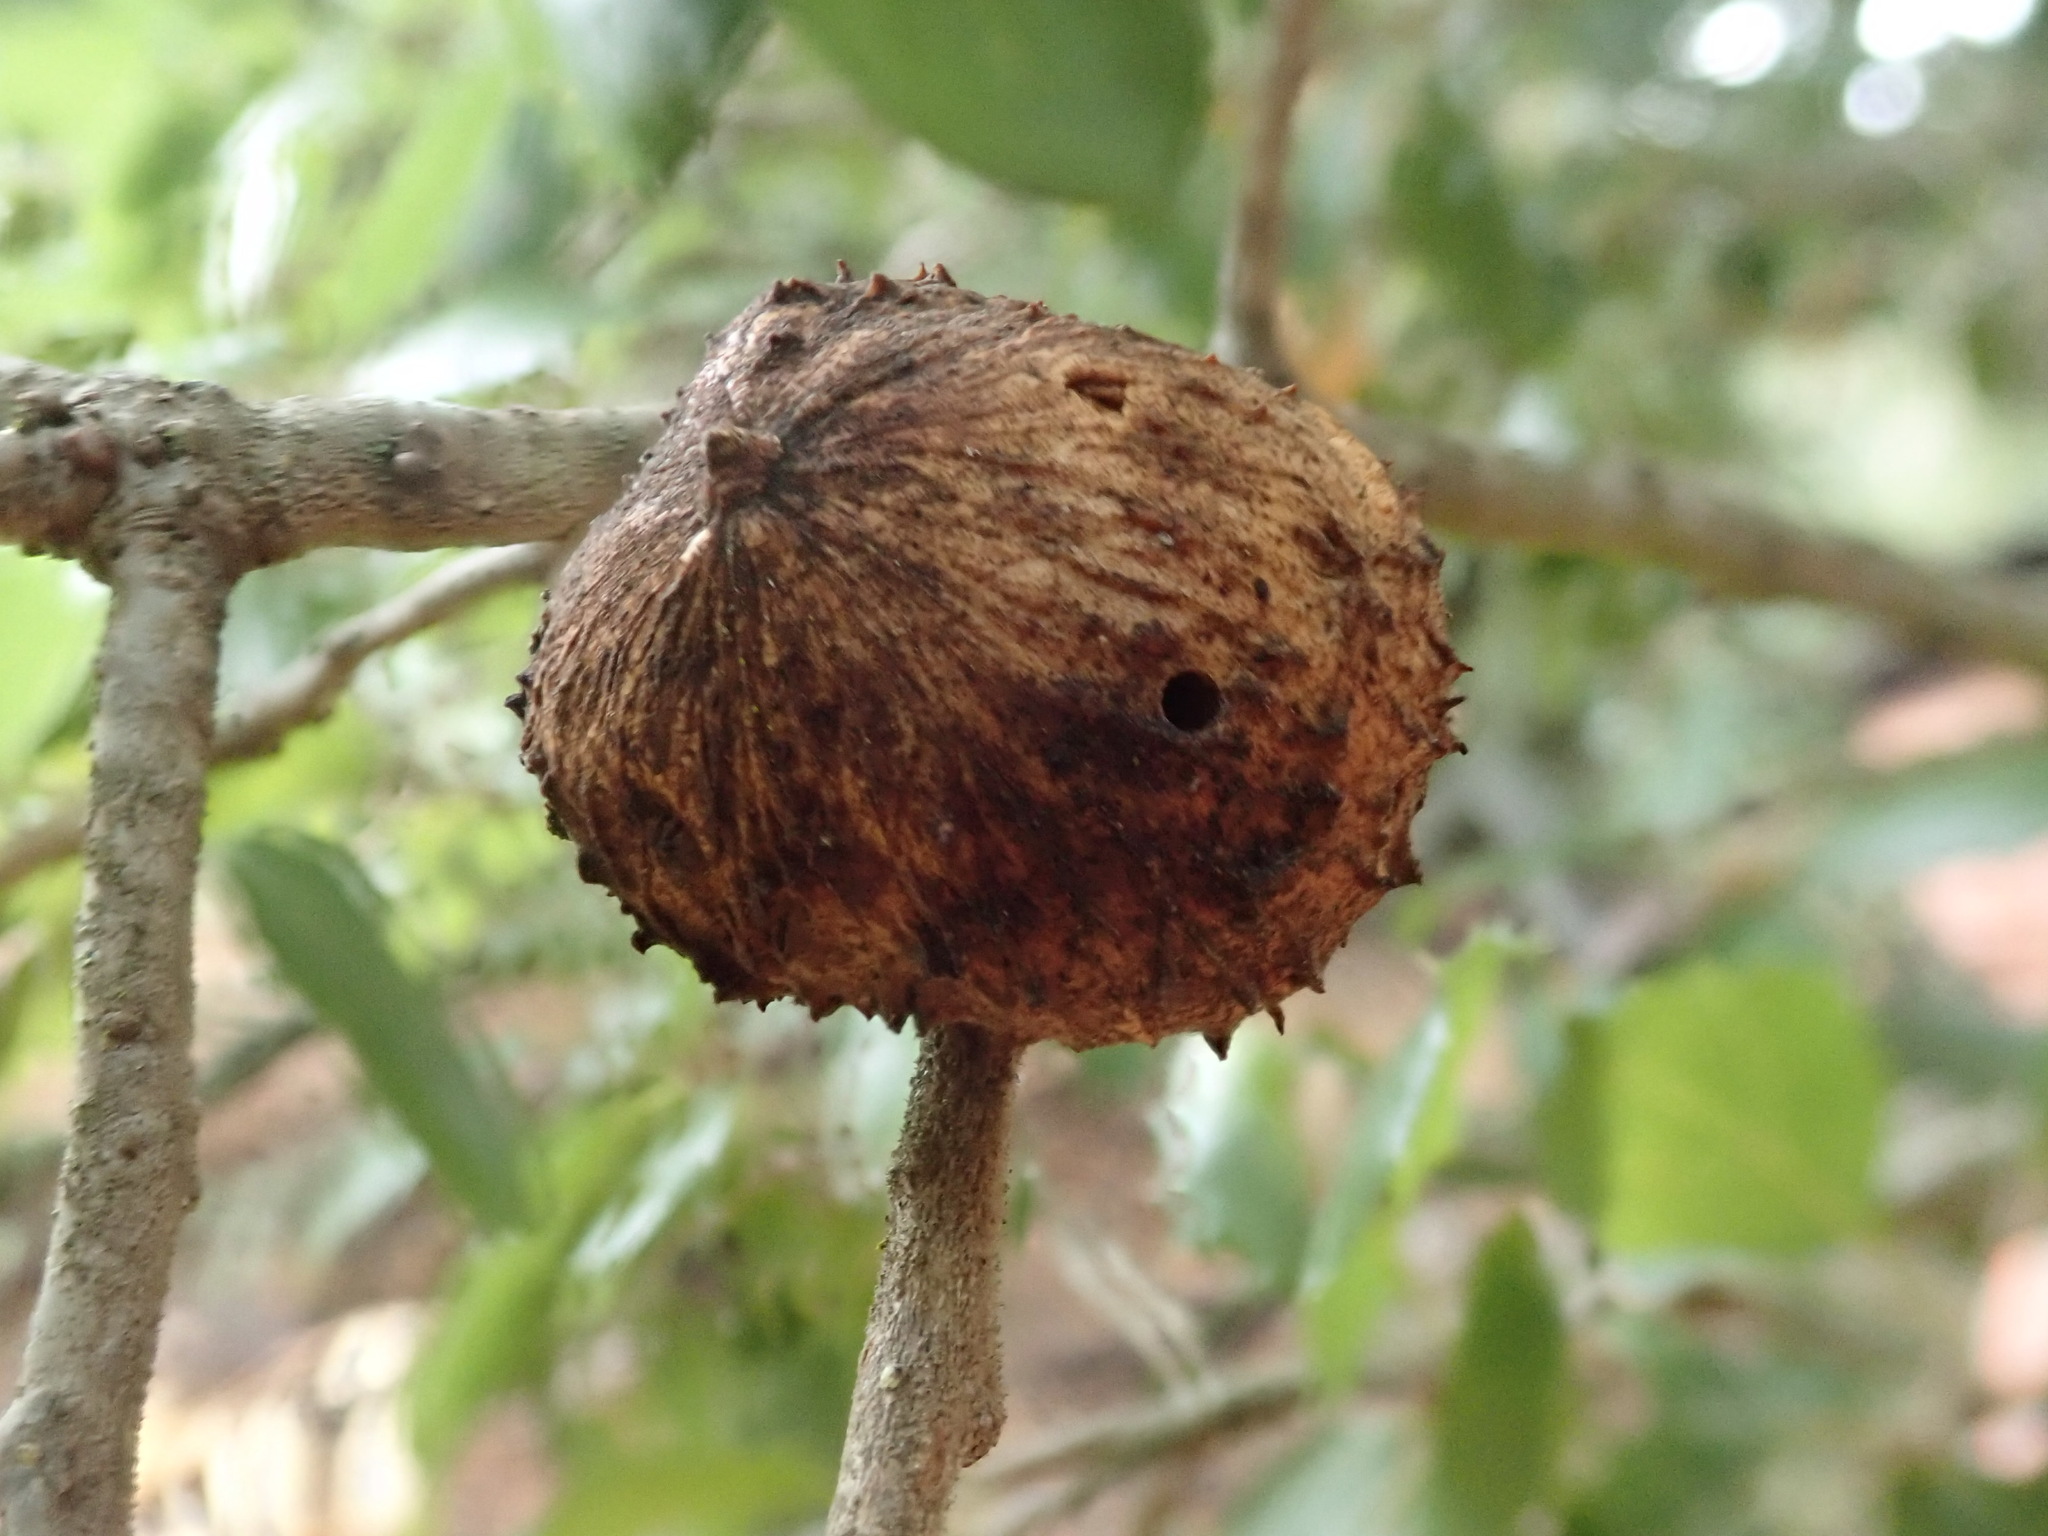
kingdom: Animalia
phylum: Arthropoda
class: Insecta
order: Hymenoptera
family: Cynipidae
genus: Amphibolips
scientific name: Amphibolips quercuspomiformis
